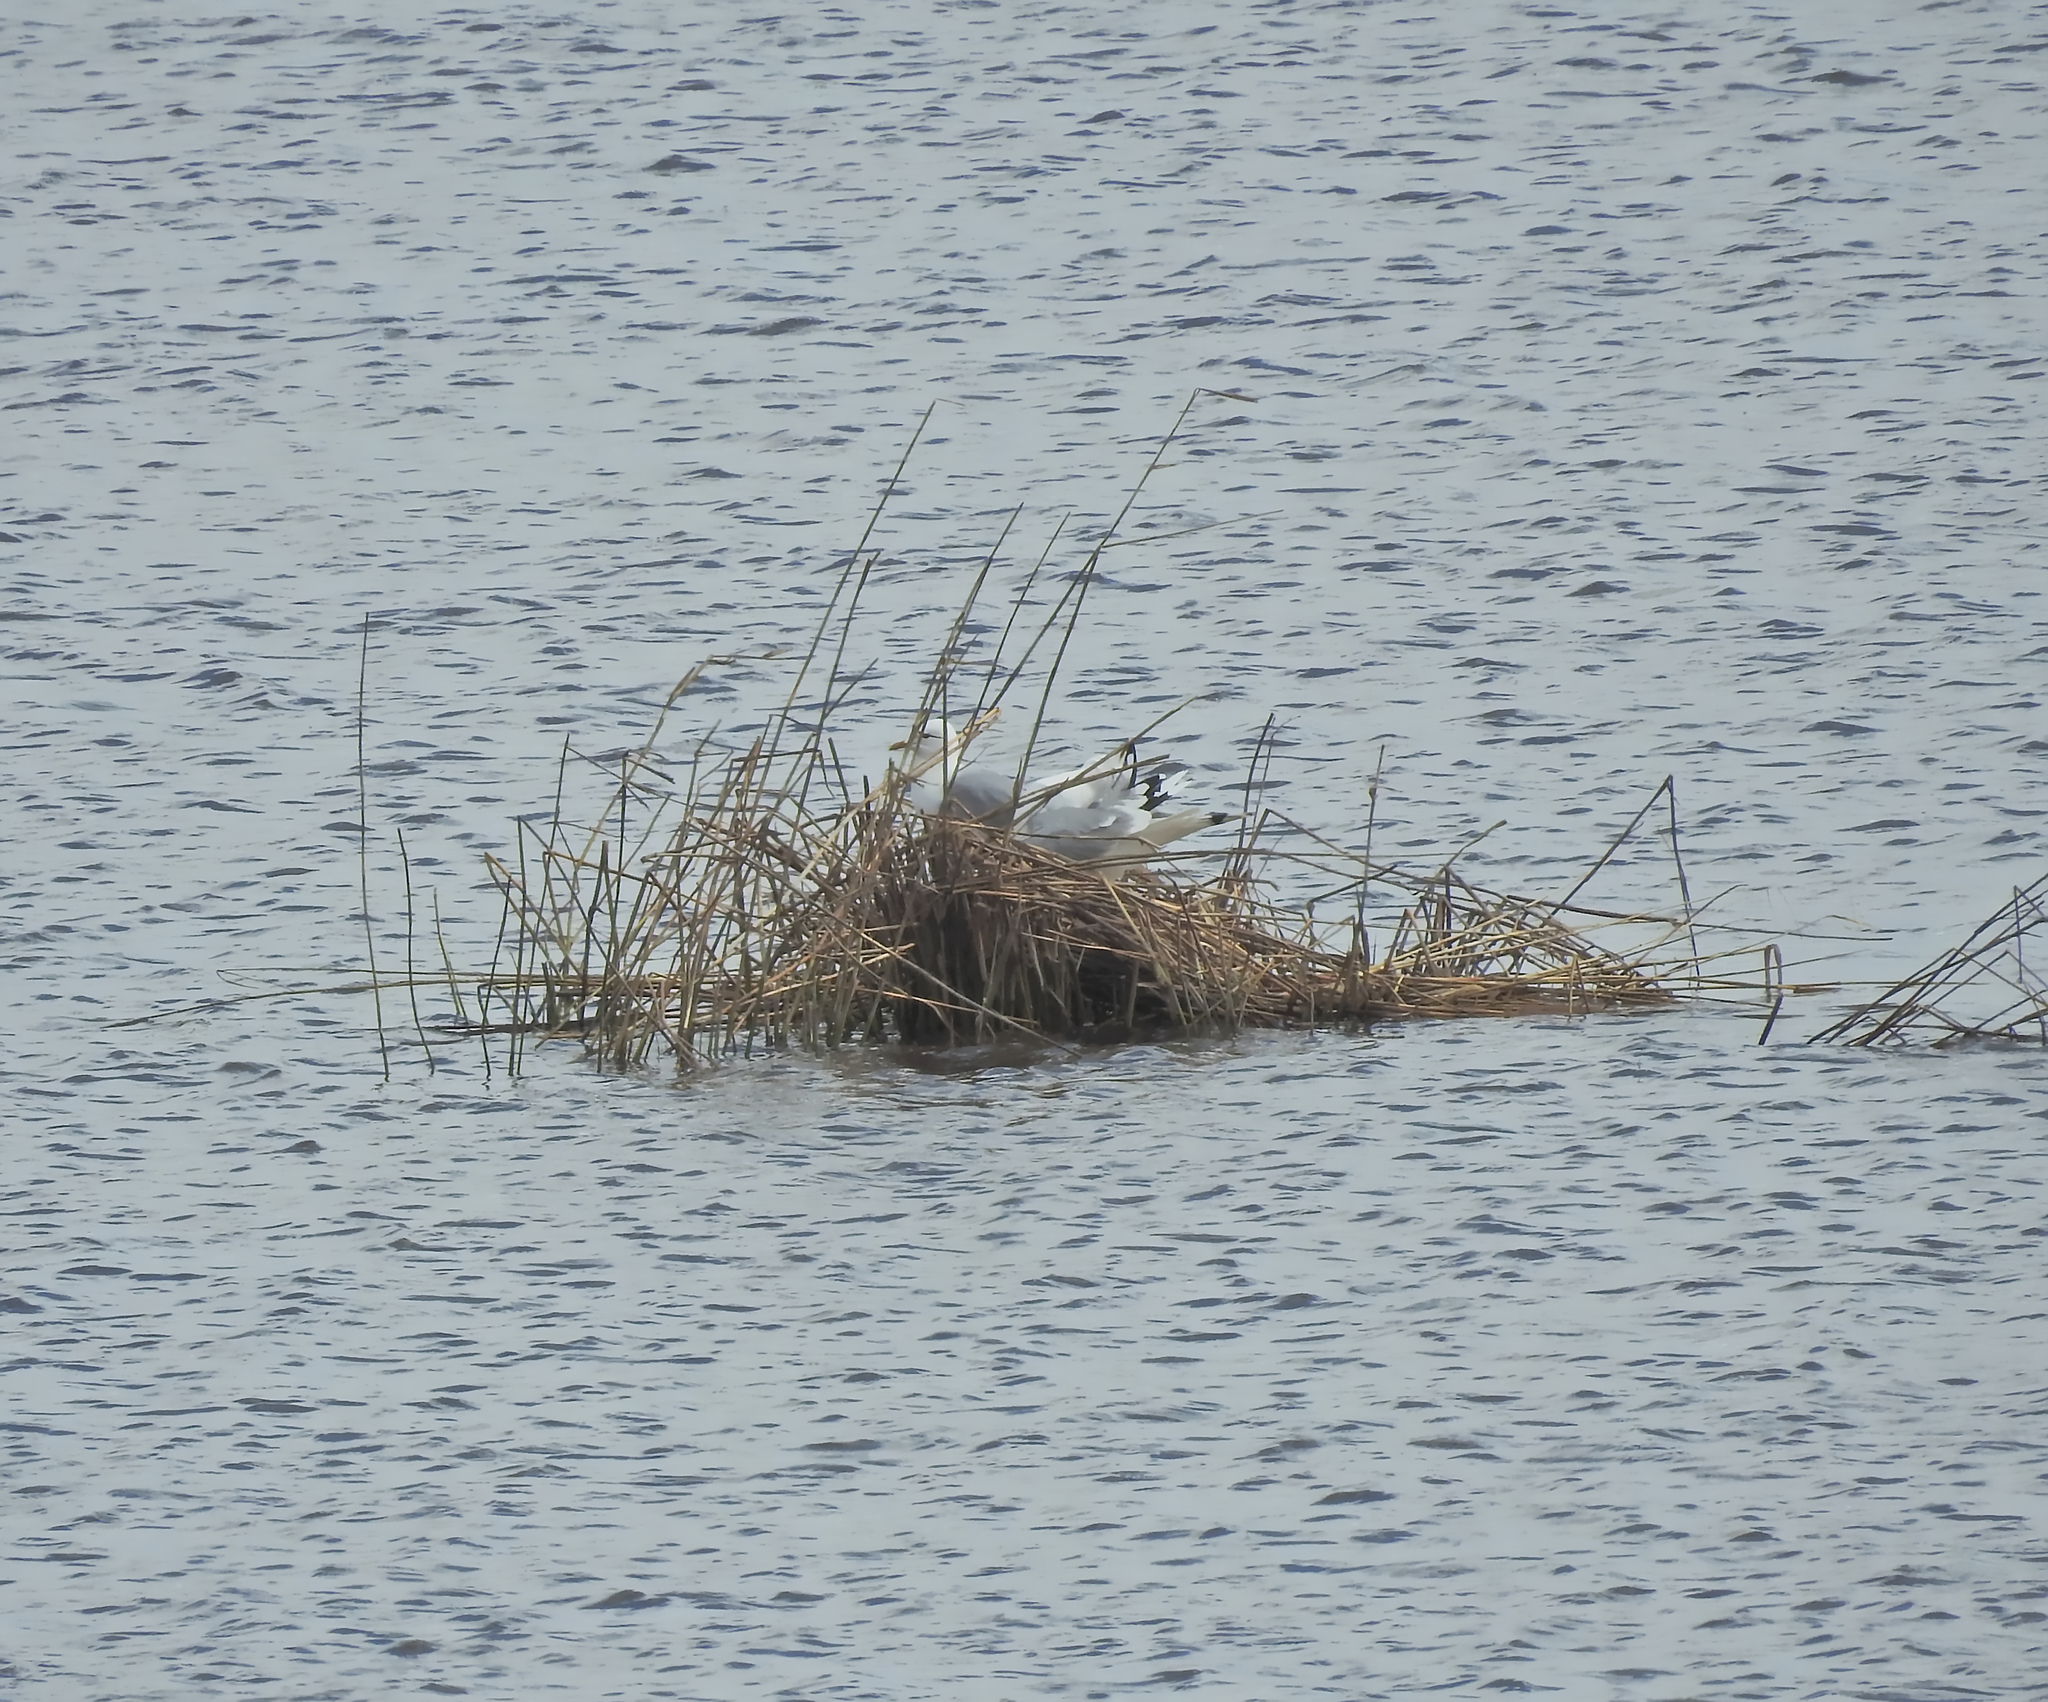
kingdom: Animalia
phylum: Chordata
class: Aves
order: Charadriiformes
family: Laridae
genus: Larus
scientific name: Larus canus
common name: Mew gull
